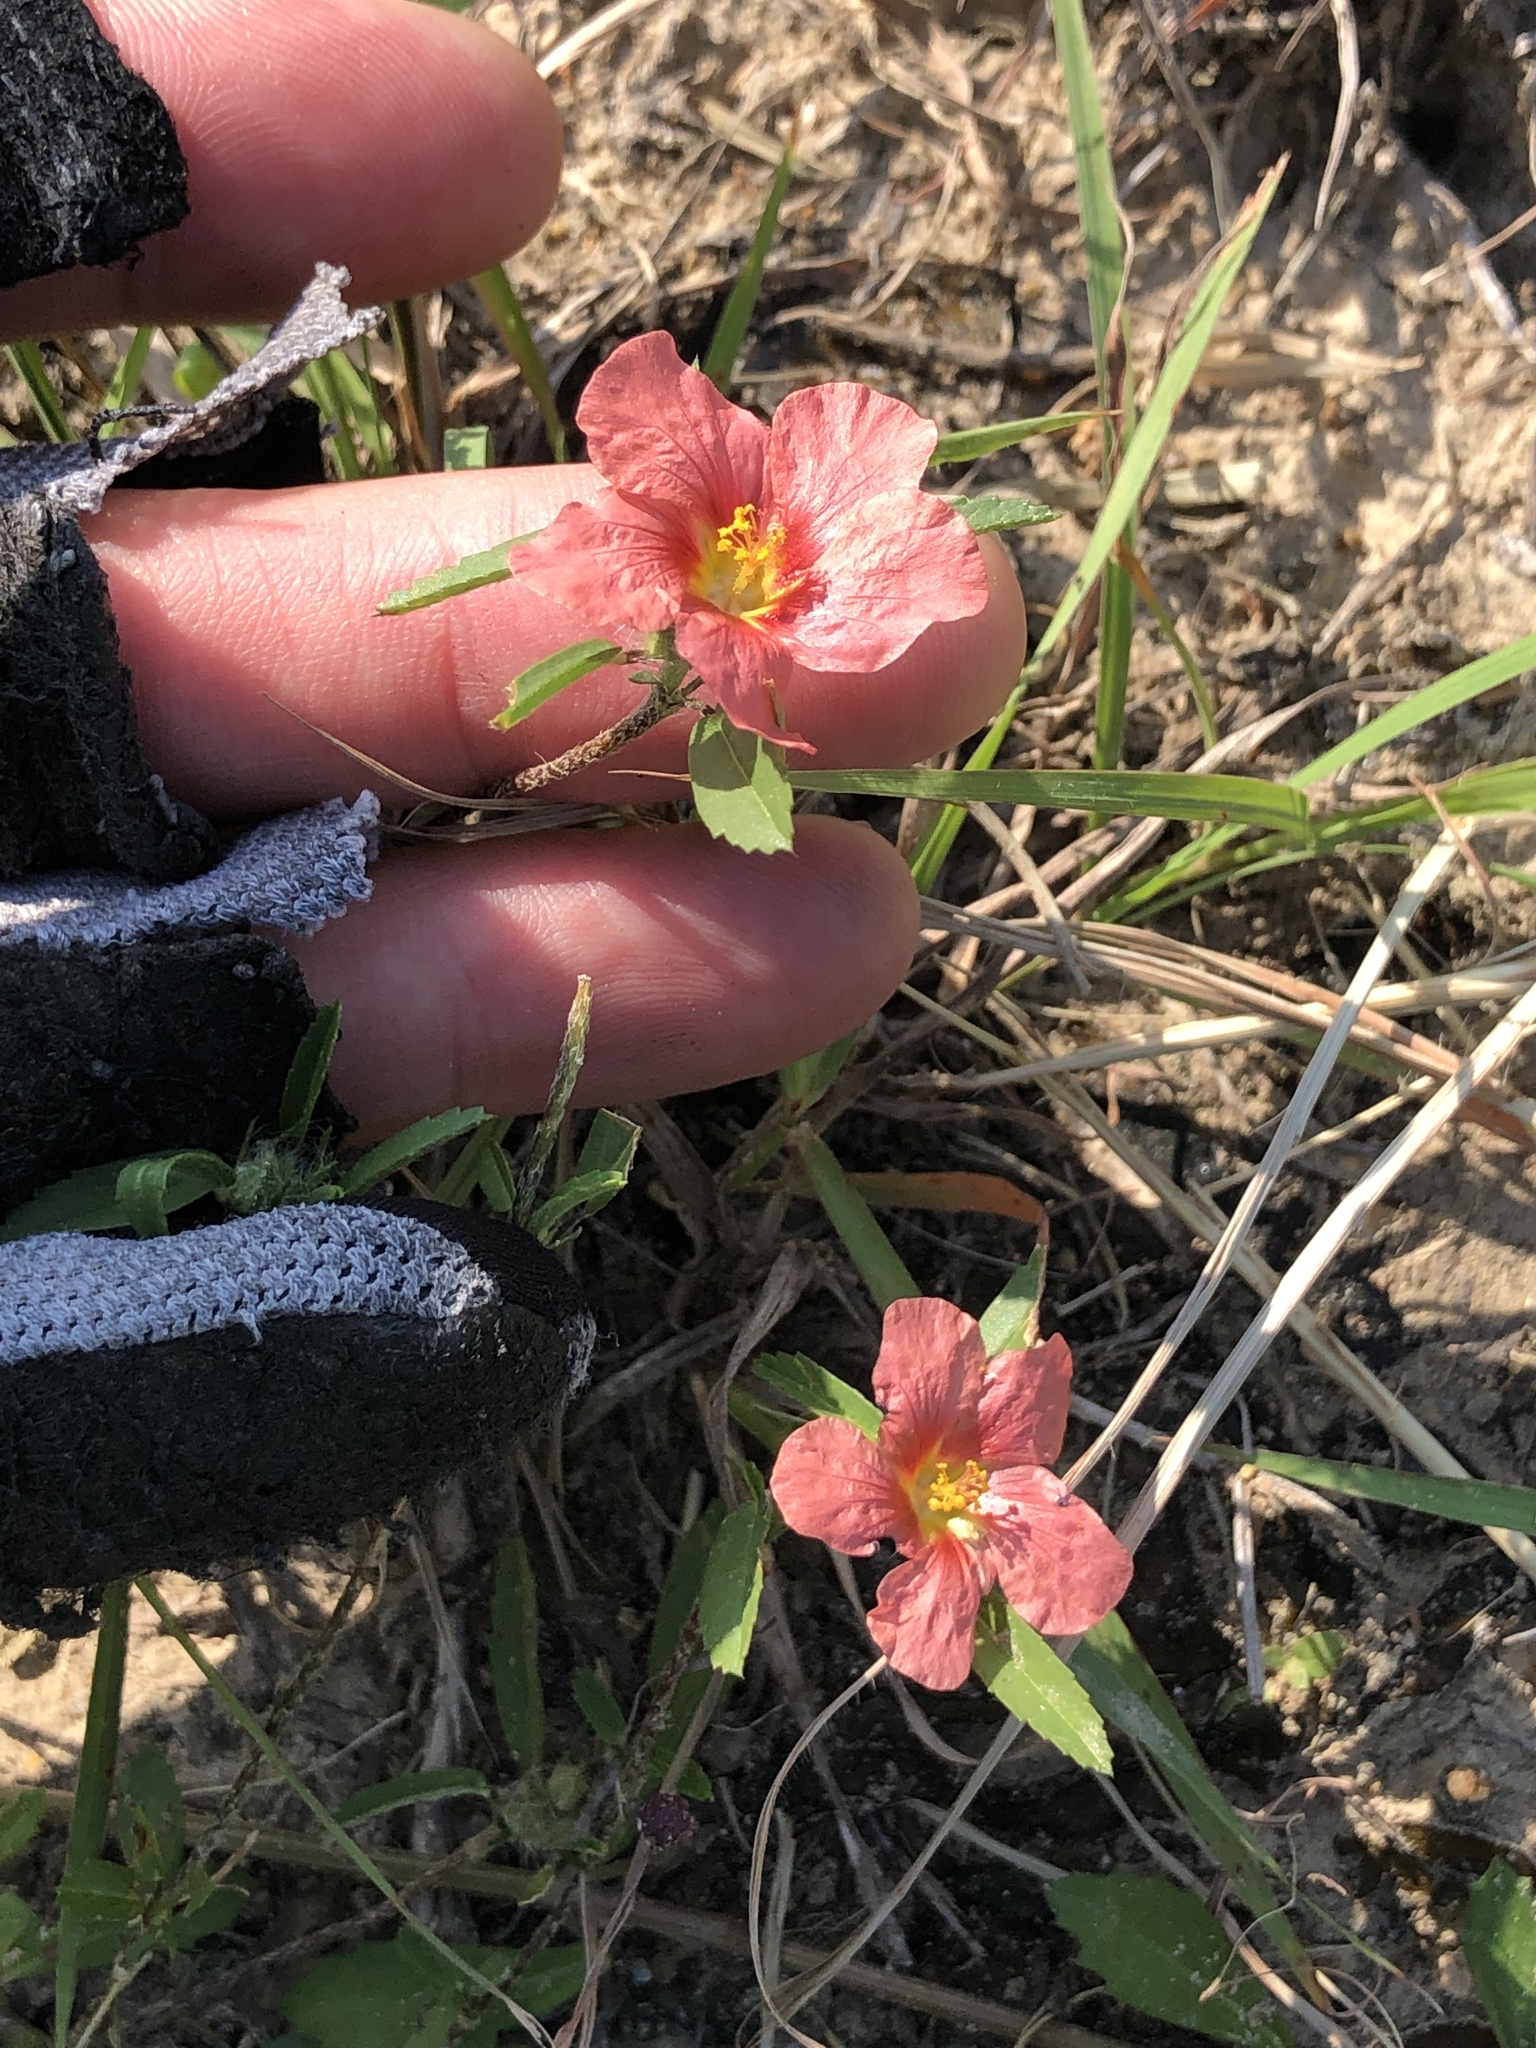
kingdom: Plantae
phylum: Tracheophyta
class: Magnoliopsida
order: Malvales
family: Malvaceae
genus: Sida
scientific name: Sida ciliaris
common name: Bracted fanpetals
